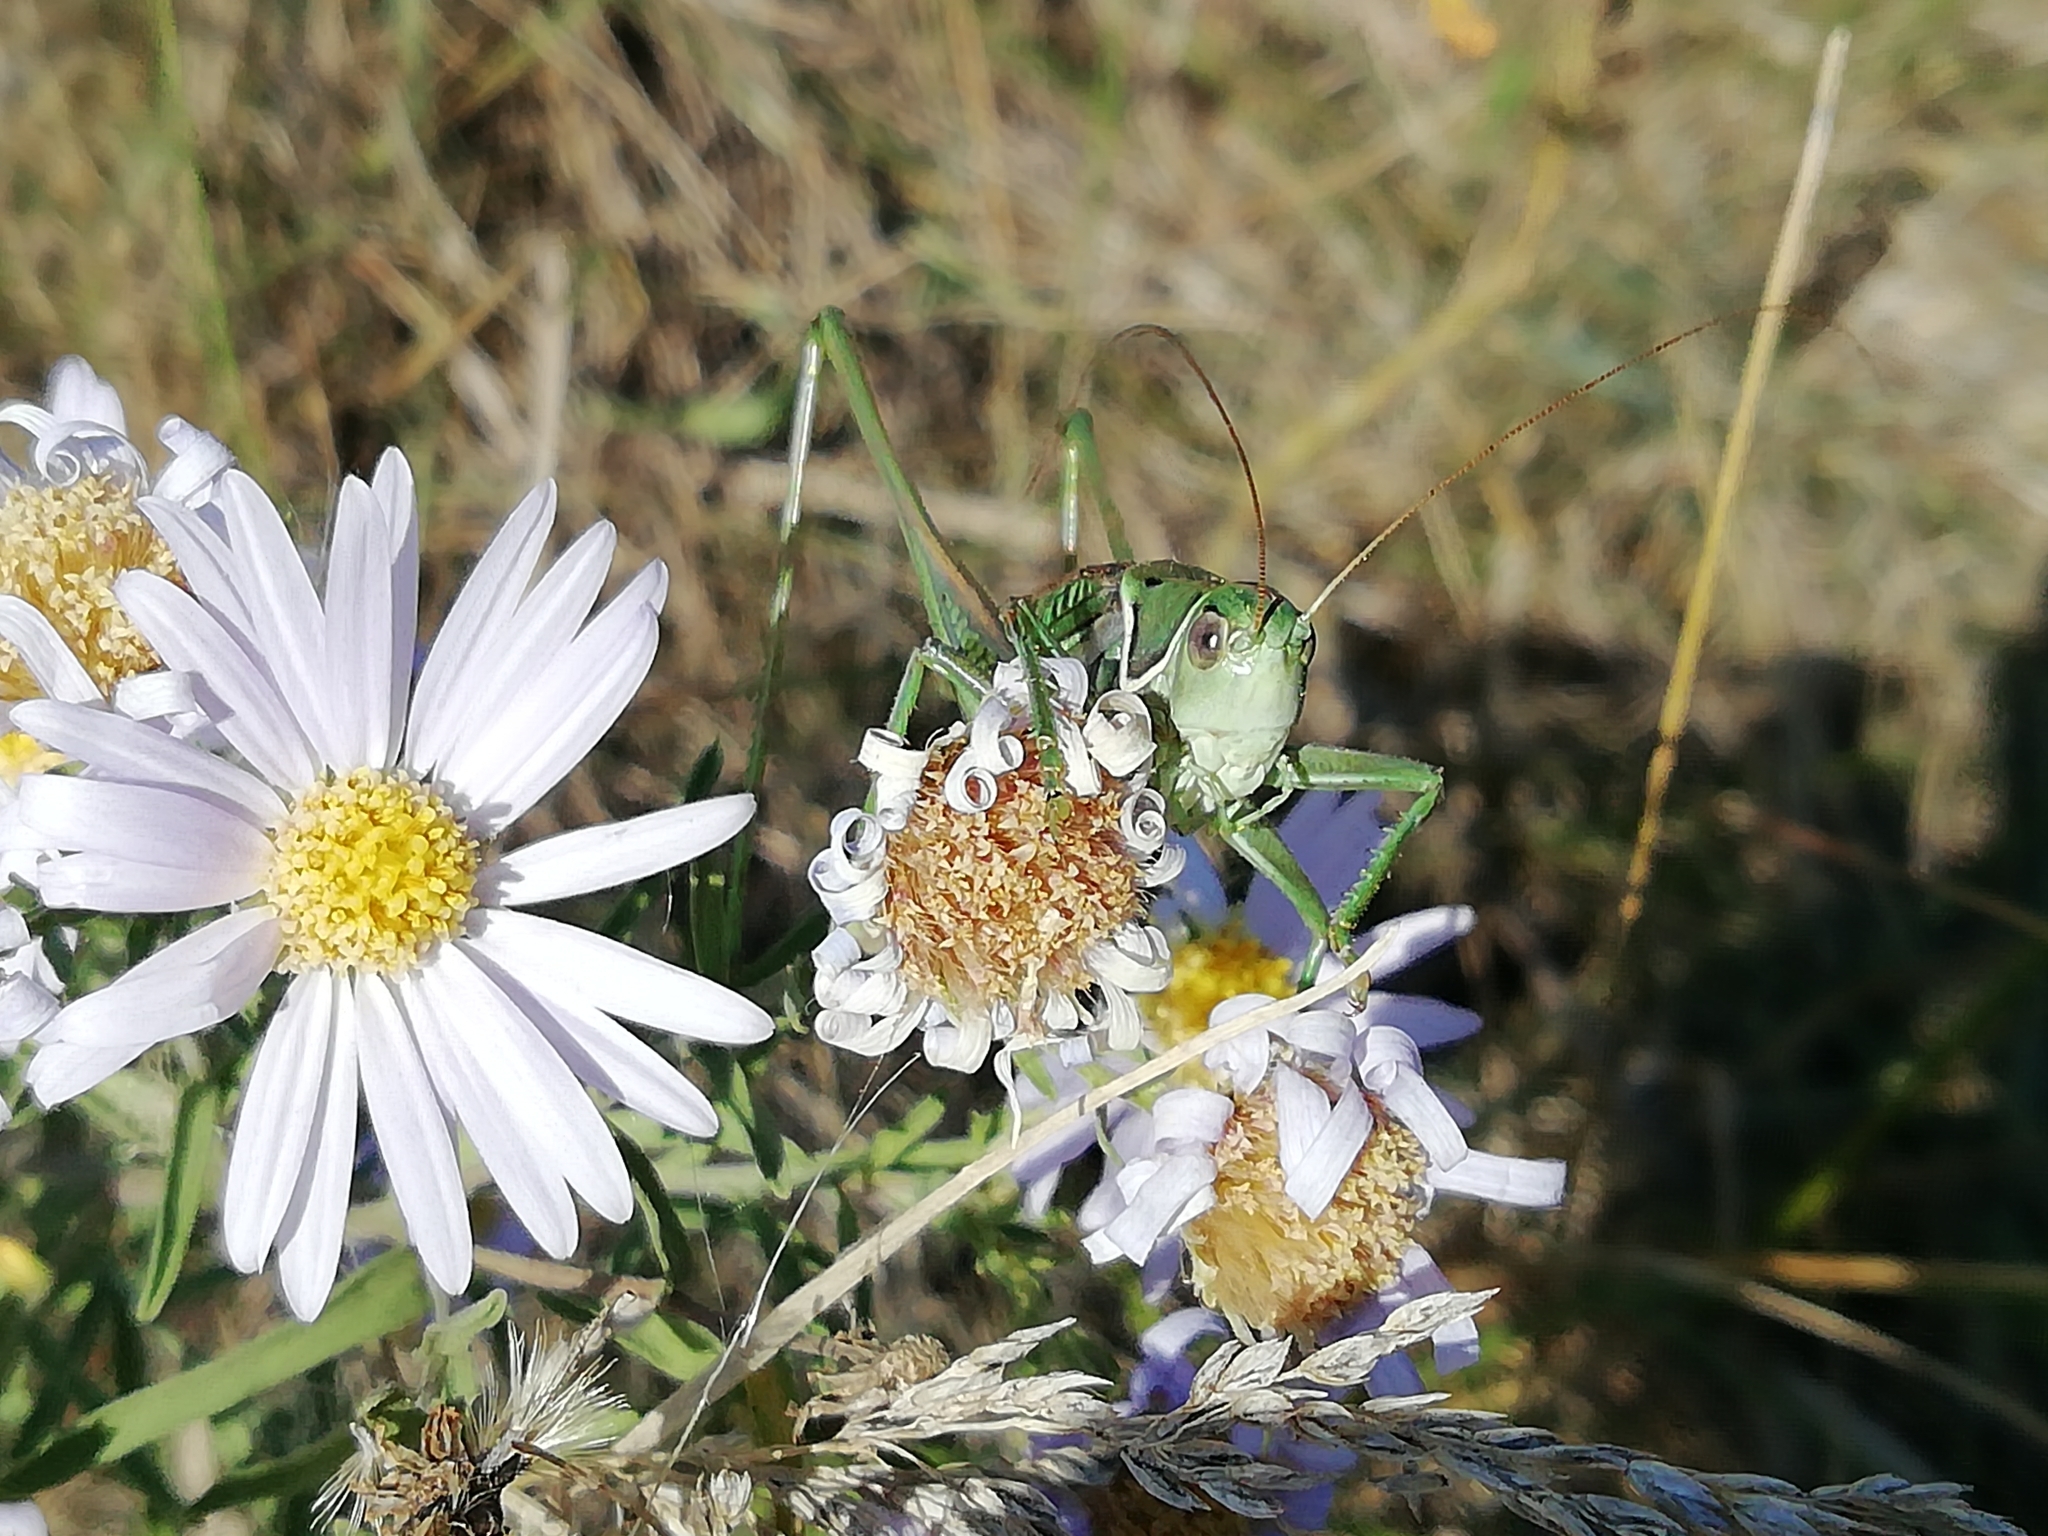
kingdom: Animalia
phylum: Arthropoda
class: Insecta
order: Orthoptera
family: Tettigoniidae
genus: Gampsocleis
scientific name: Gampsocleis glabra
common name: Heath bushcricket
